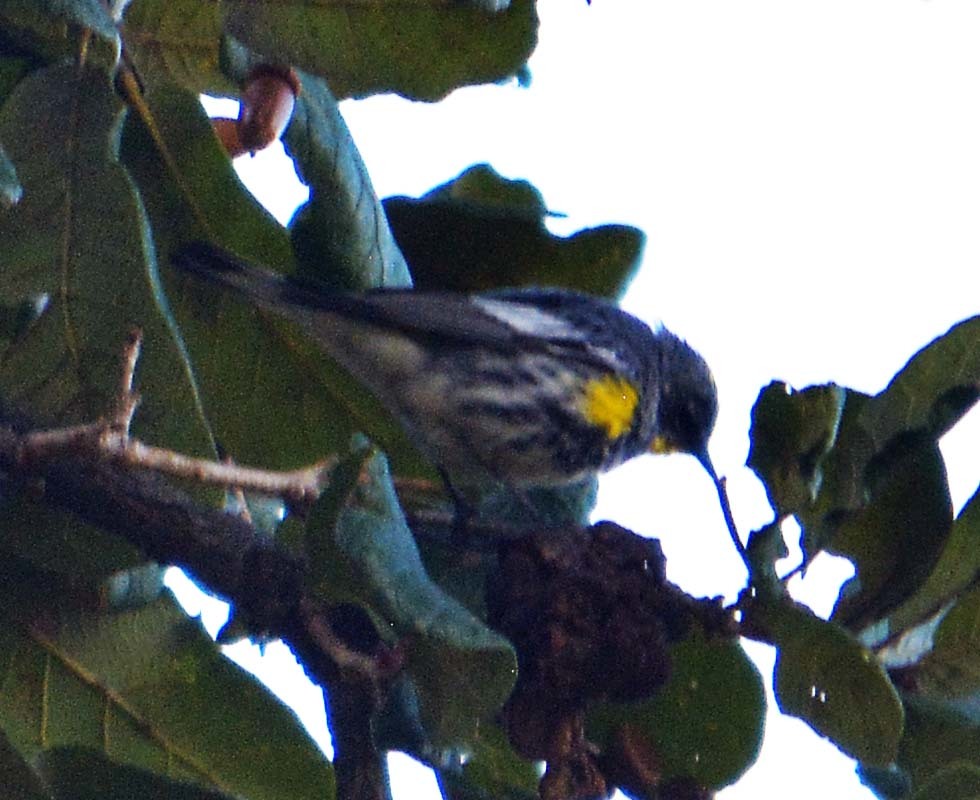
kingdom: Animalia
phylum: Chordata
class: Aves
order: Passeriformes
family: Parulidae
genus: Setophaga
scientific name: Setophaga coronata
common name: Myrtle warbler
